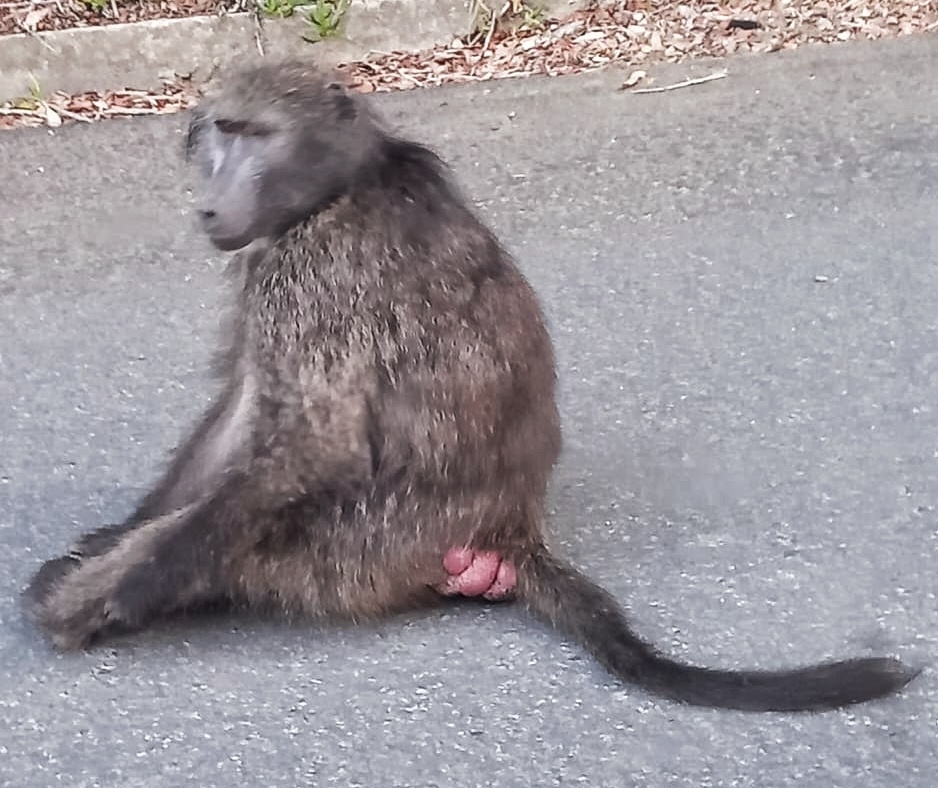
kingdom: Animalia
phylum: Chordata
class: Mammalia
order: Primates
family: Cercopithecidae
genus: Papio
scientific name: Papio ursinus
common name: Chacma baboon
